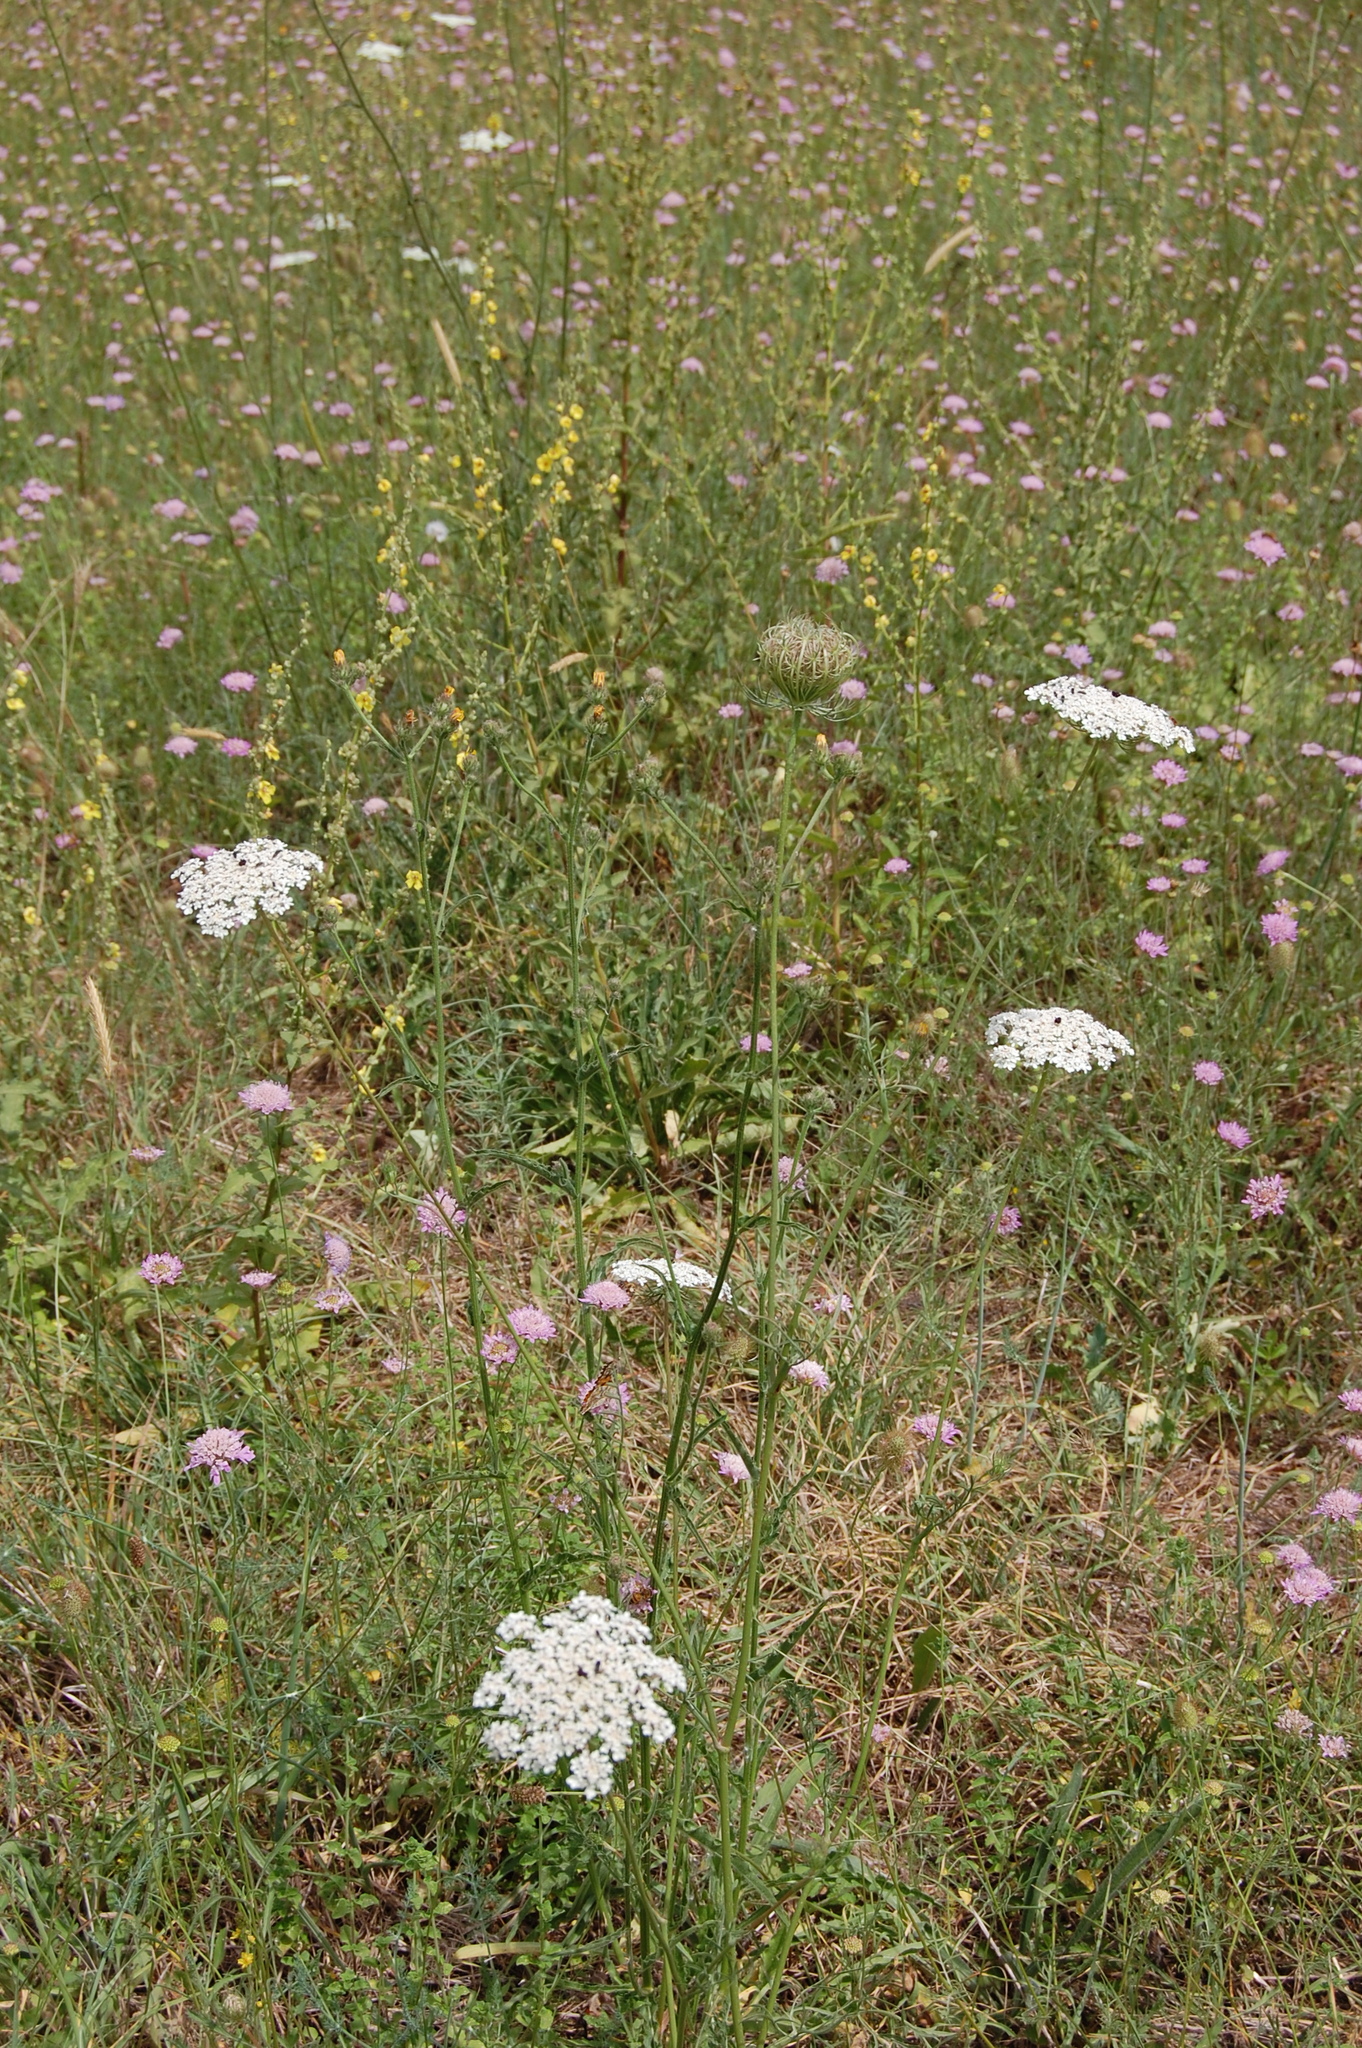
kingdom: Plantae
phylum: Tracheophyta
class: Magnoliopsida
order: Apiales
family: Apiaceae
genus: Daucus
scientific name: Daucus carota
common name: Wild carrot
